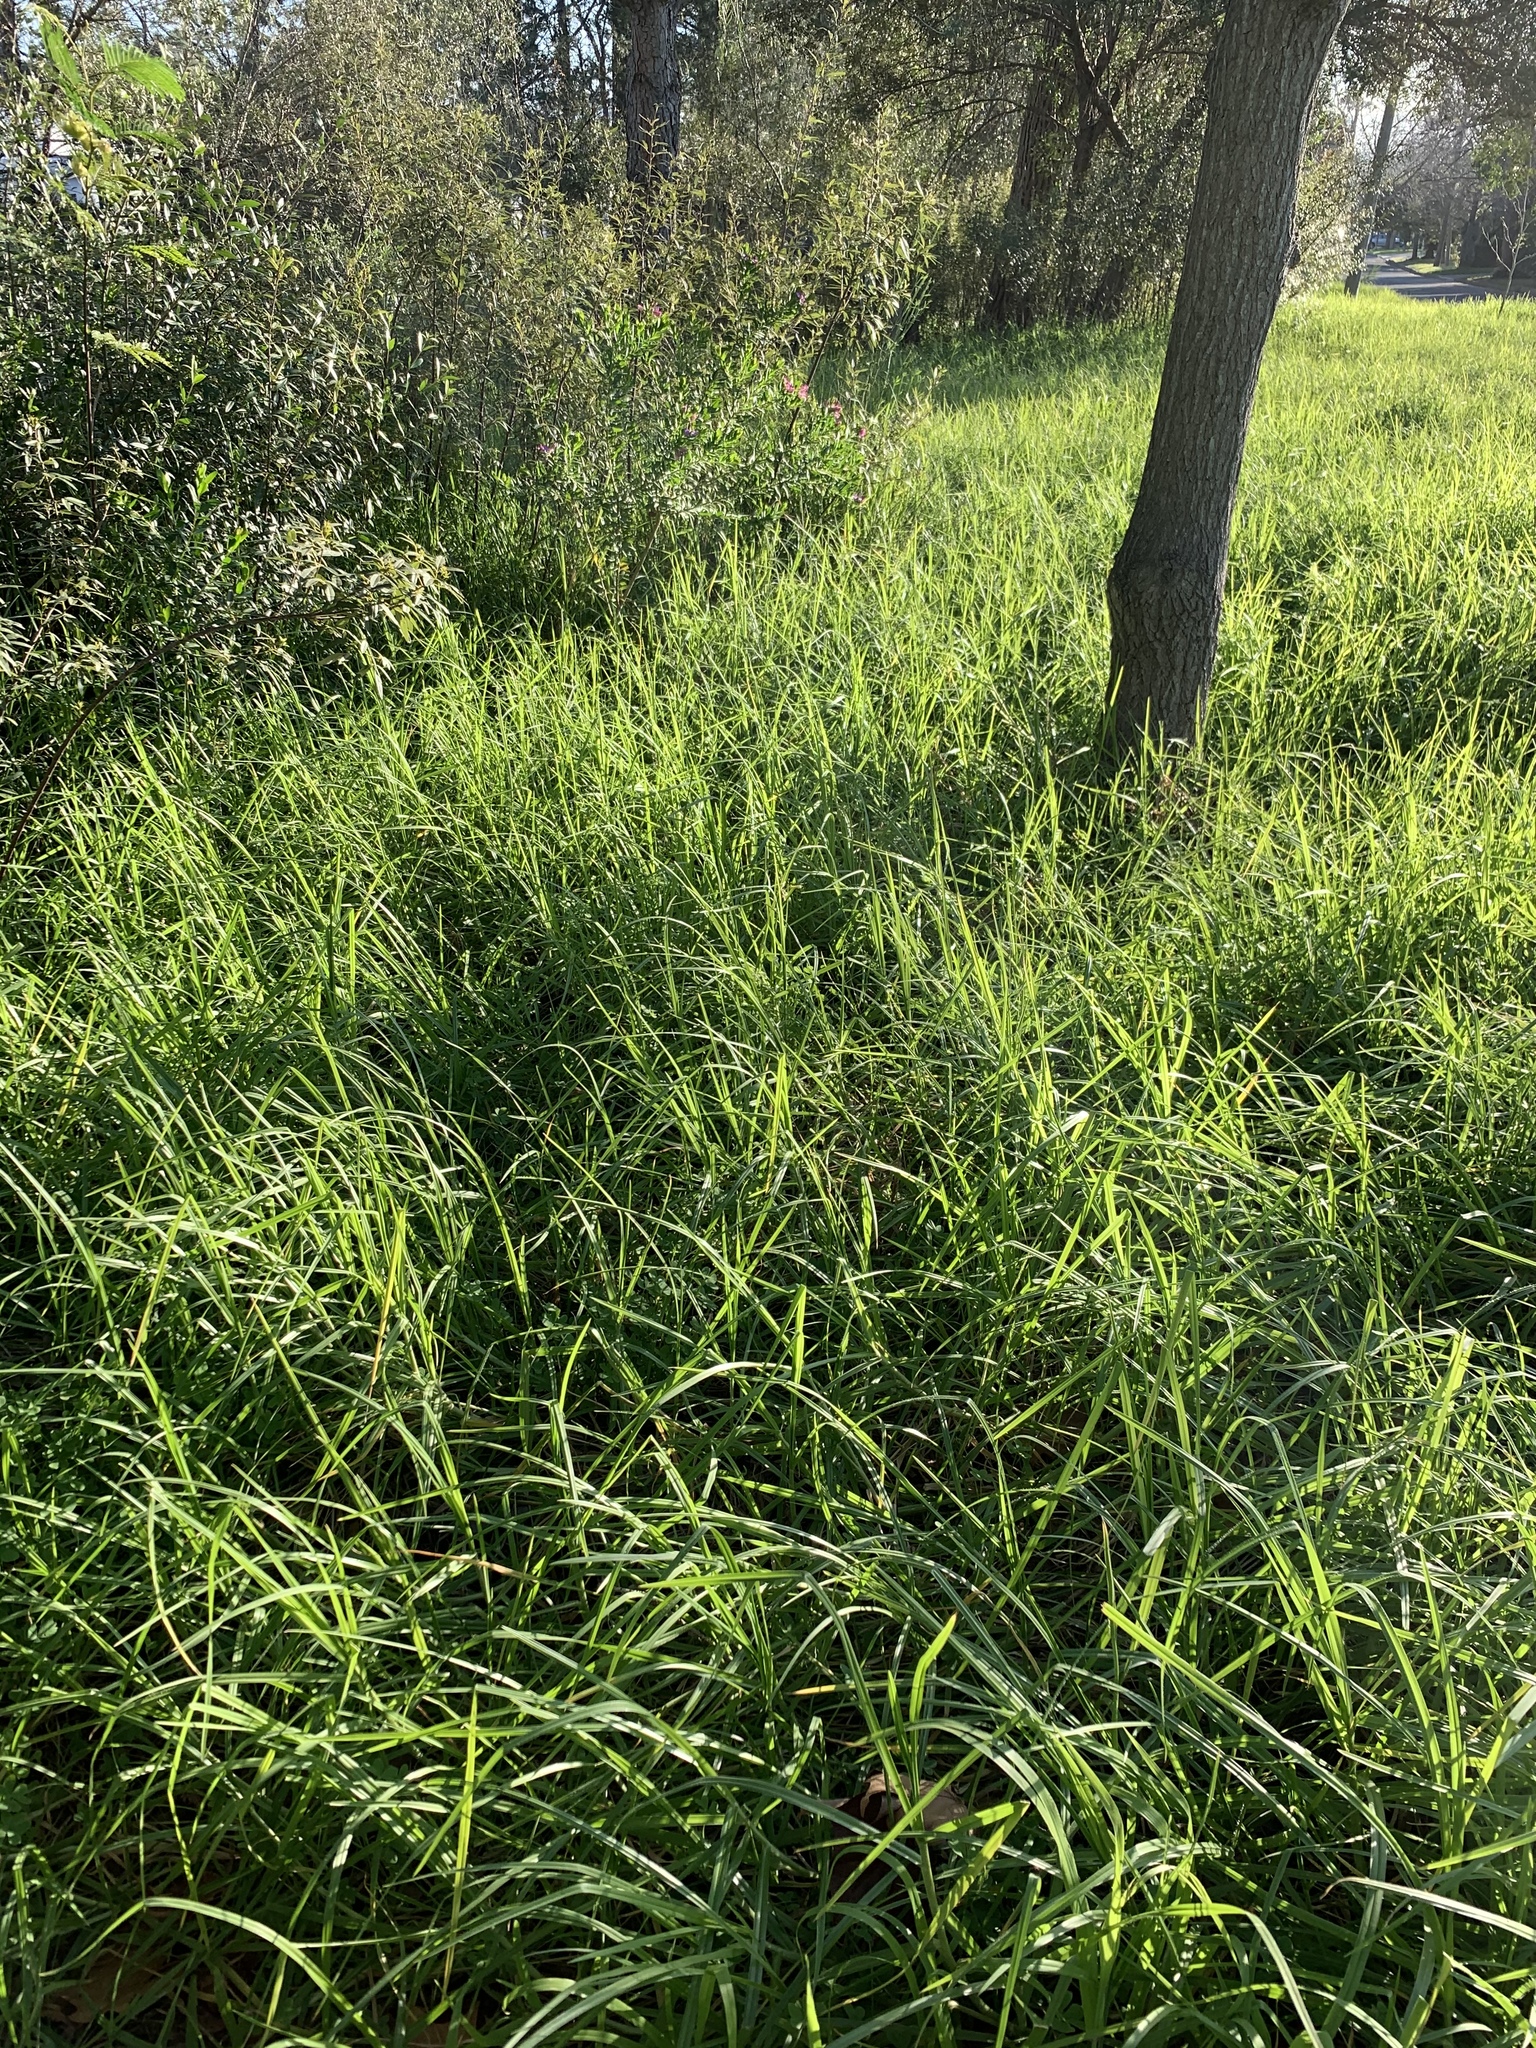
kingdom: Plantae
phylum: Tracheophyta
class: Liliopsida
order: Poales
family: Poaceae
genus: Cenchrus
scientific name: Cenchrus clandestinus
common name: Kikuyugrass
